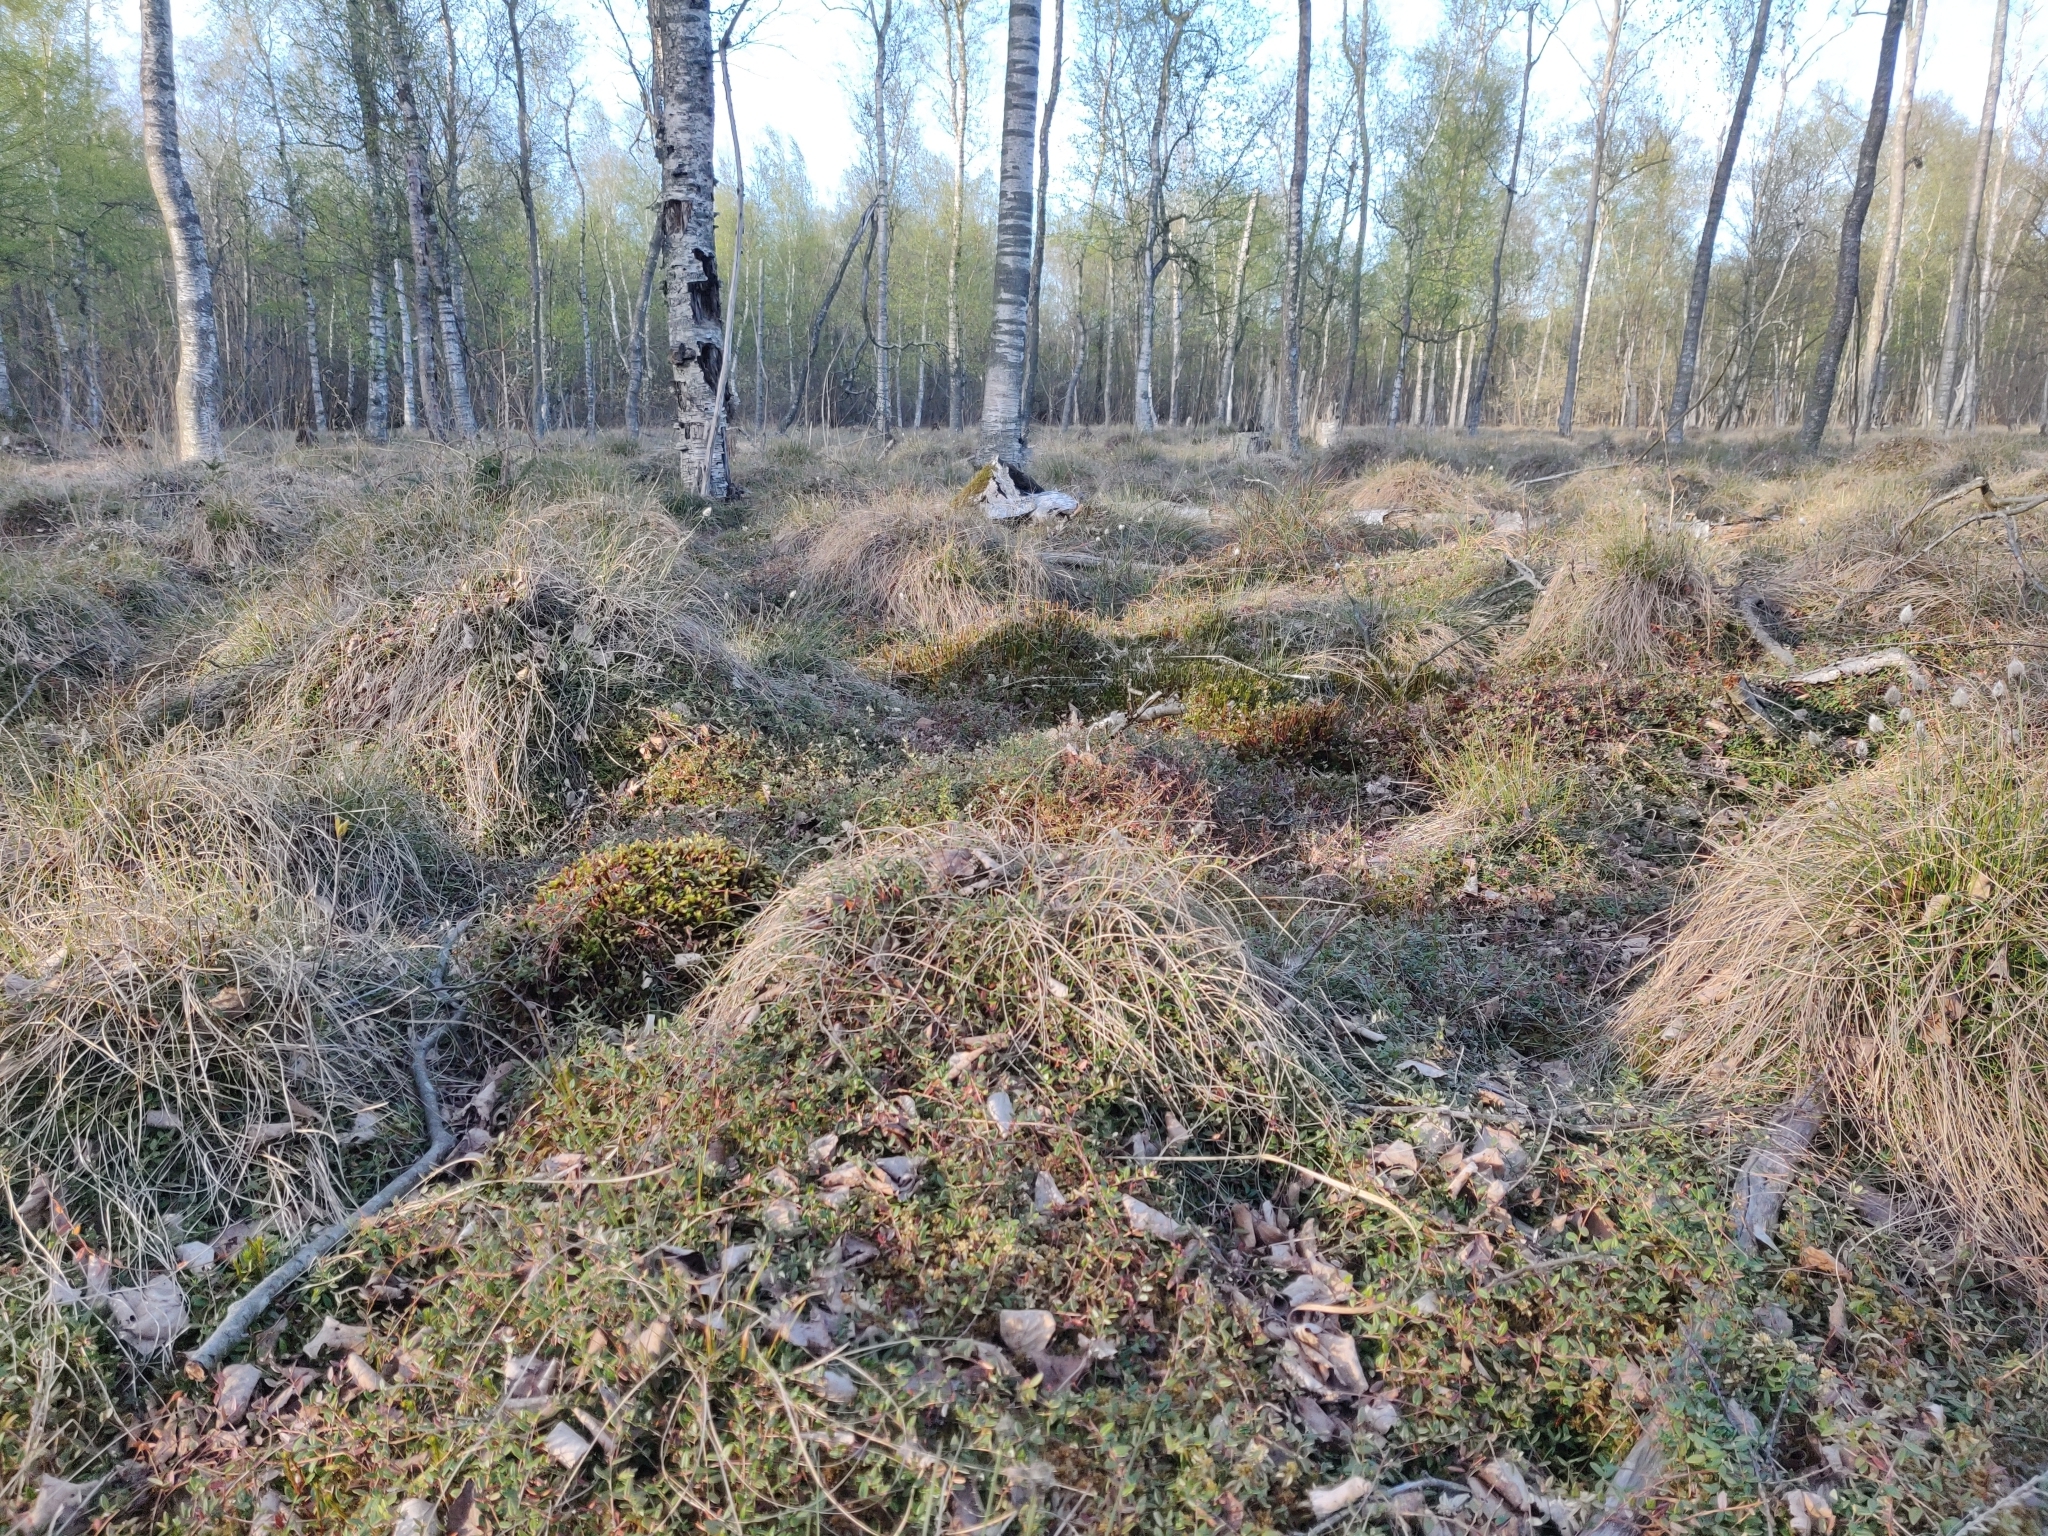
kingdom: Plantae
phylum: Tracheophyta
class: Magnoliopsida
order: Ericales
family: Ericaceae
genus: Vaccinium
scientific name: Vaccinium oxycoccos
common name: Cranberry
